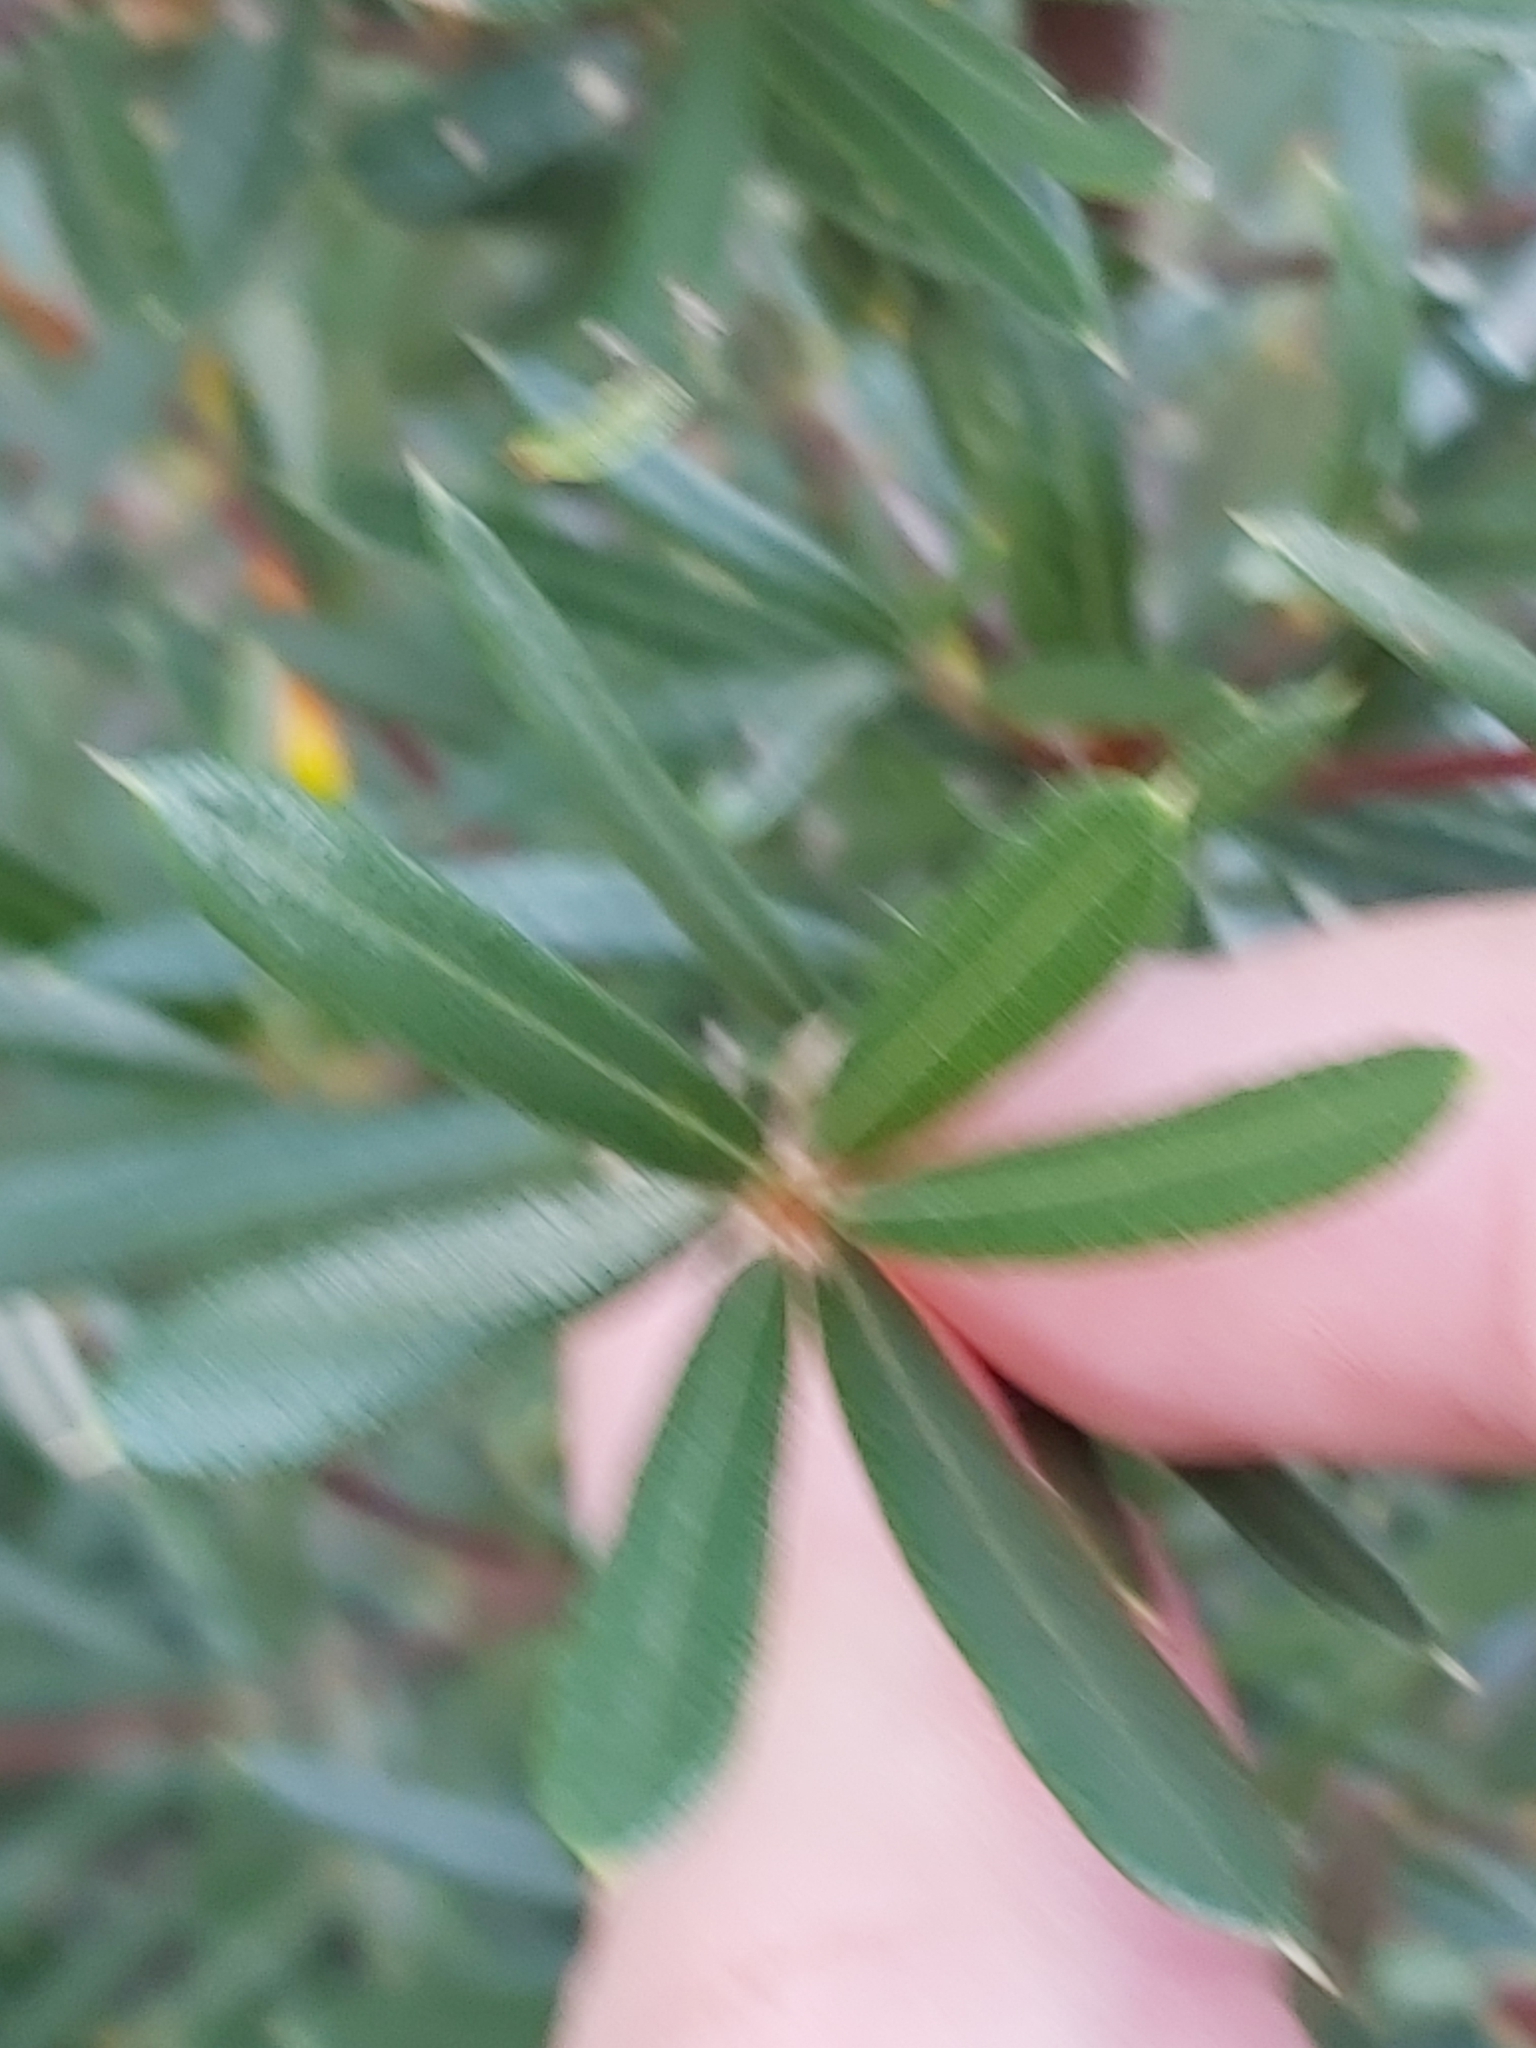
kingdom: Plantae
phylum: Tracheophyta
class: Magnoliopsida
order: Proteales
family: Proteaceae
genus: Lambertia
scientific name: Lambertia formosa
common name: Mountain-devil
